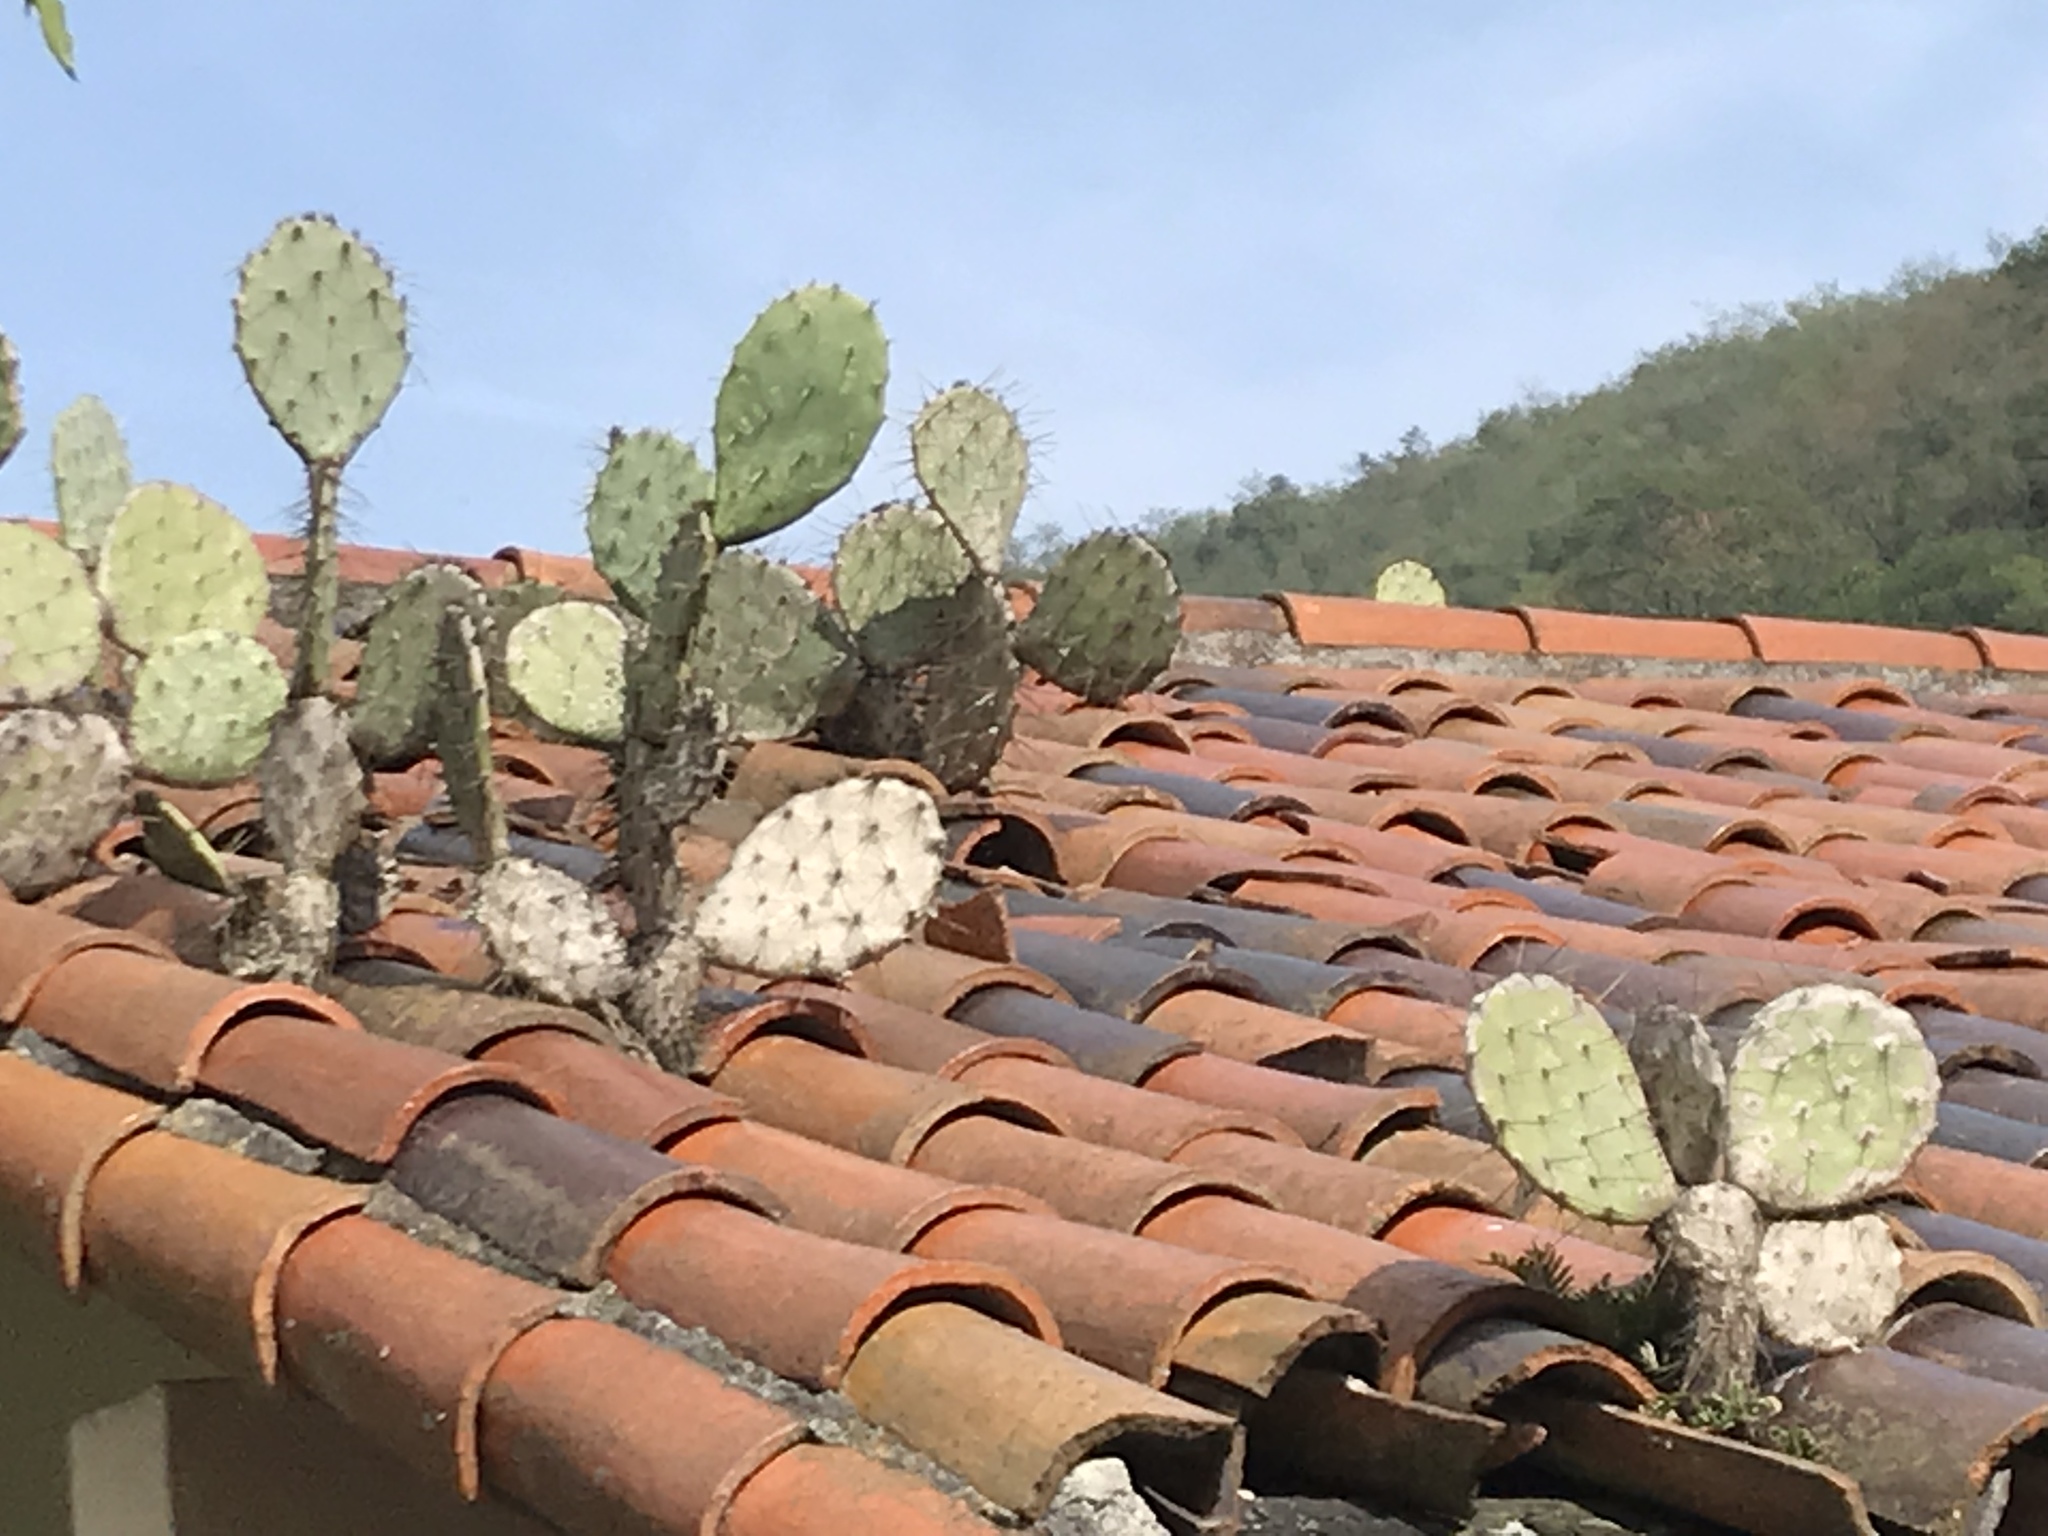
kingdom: Plantae
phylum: Tracheophyta
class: Magnoliopsida
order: Caryophyllales
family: Cactaceae
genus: Opuntia
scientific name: Opuntia engelmannii
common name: Cactus-apple
